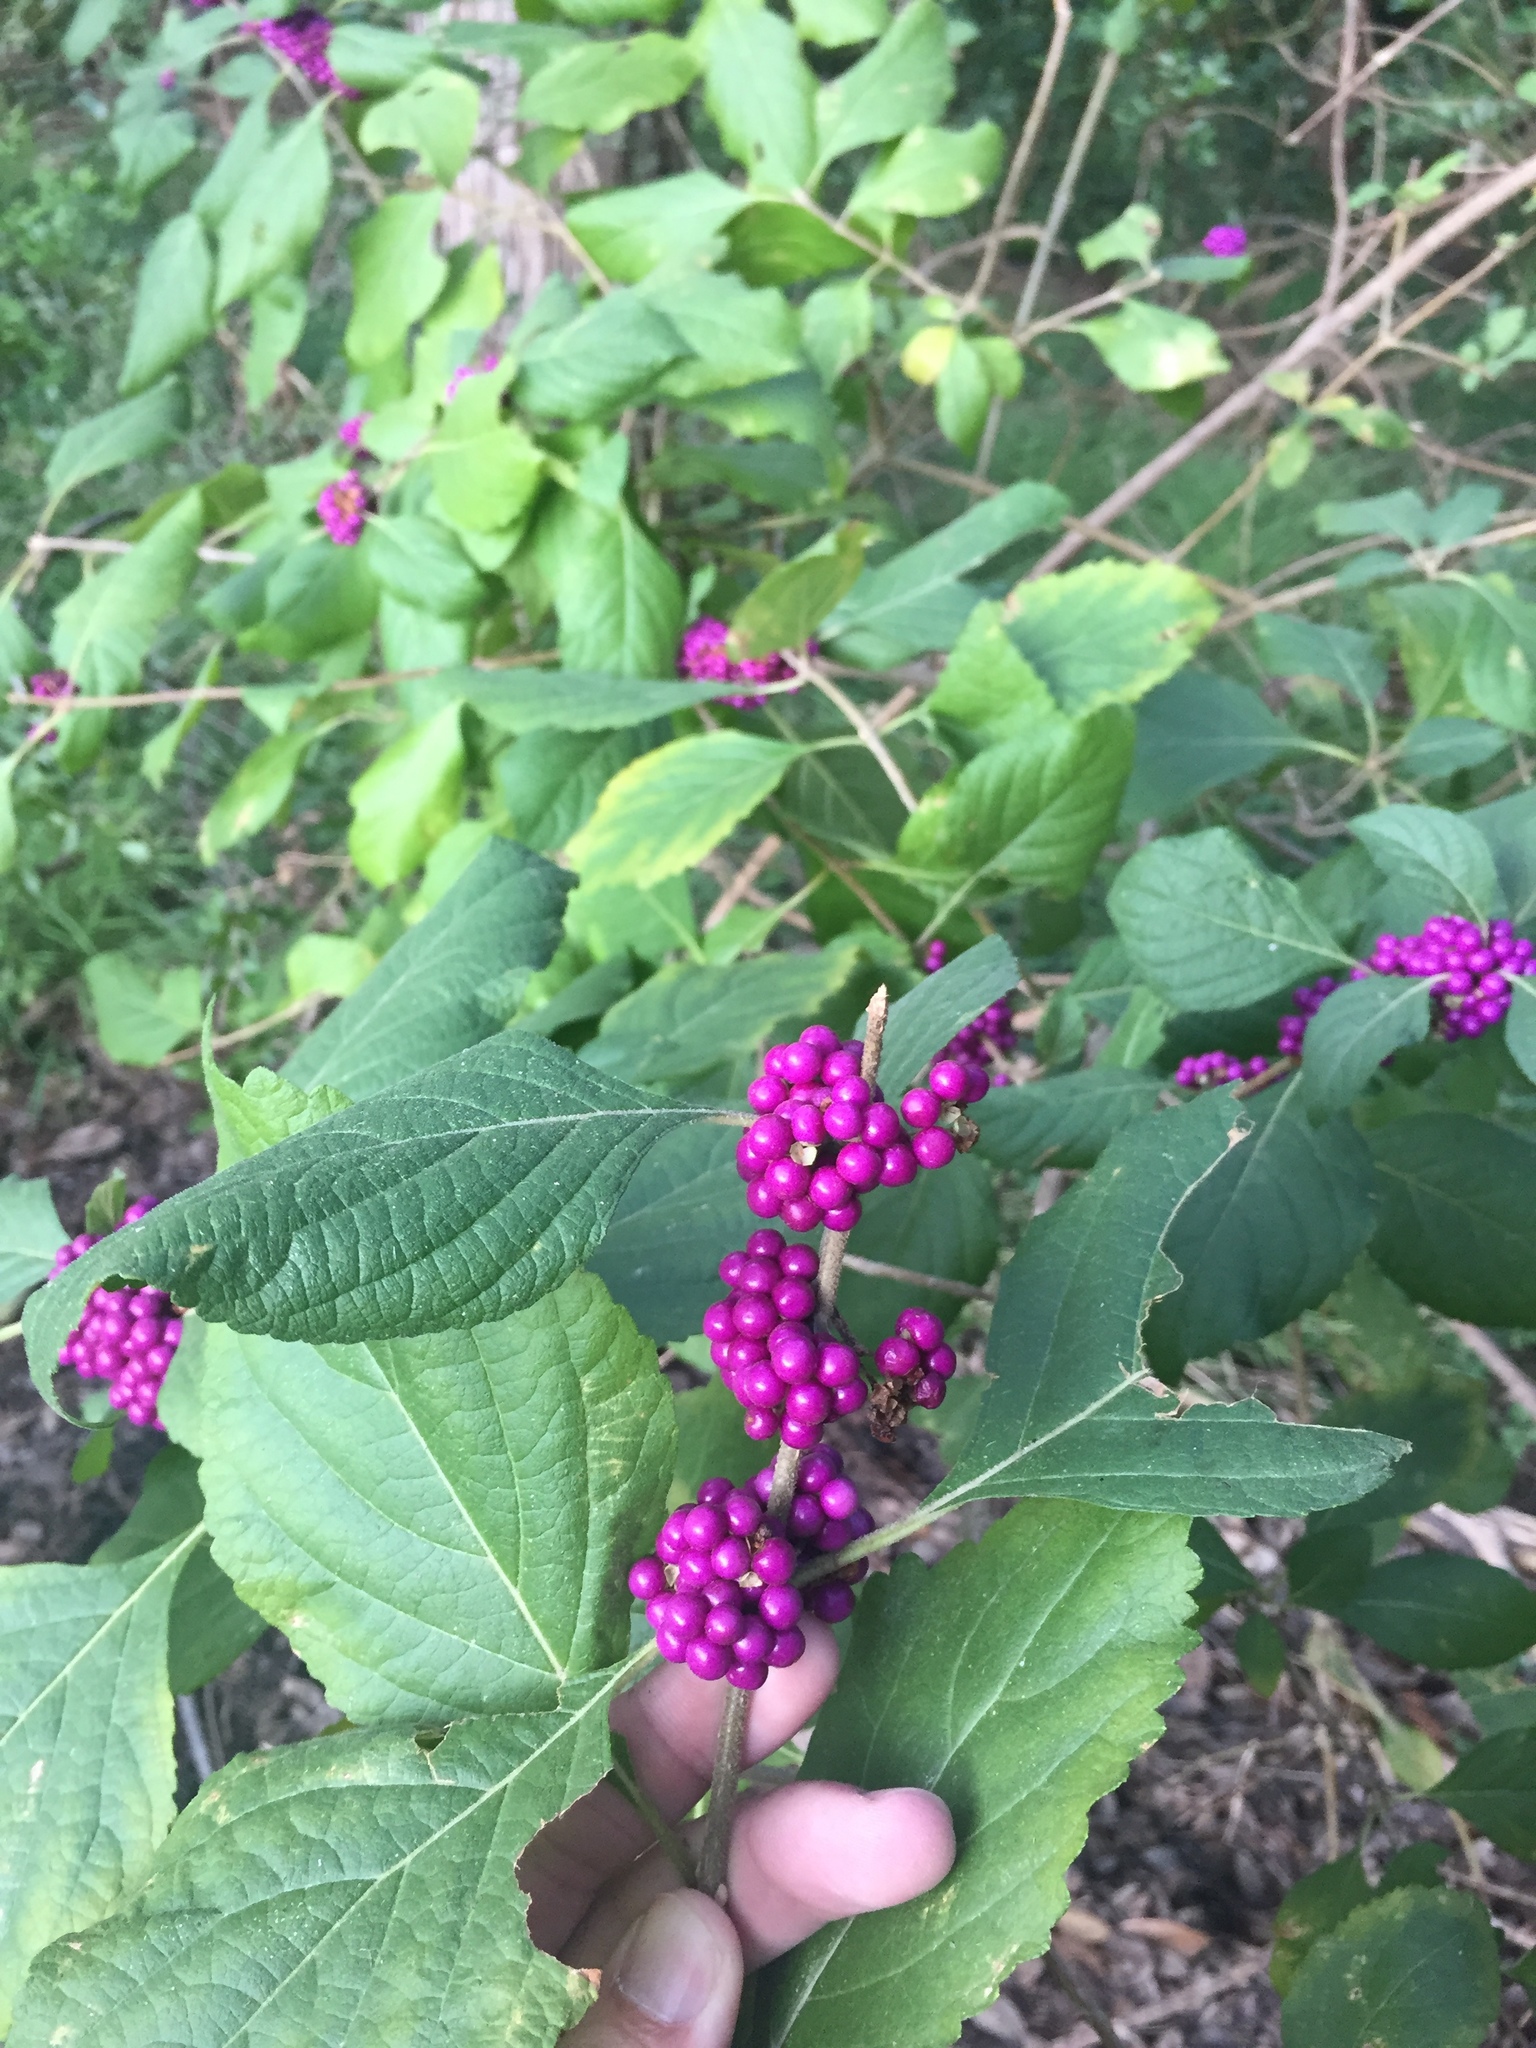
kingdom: Plantae
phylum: Tracheophyta
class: Magnoliopsida
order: Lamiales
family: Lamiaceae
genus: Callicarpa
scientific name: Callicarpa americana
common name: American beautyberry
